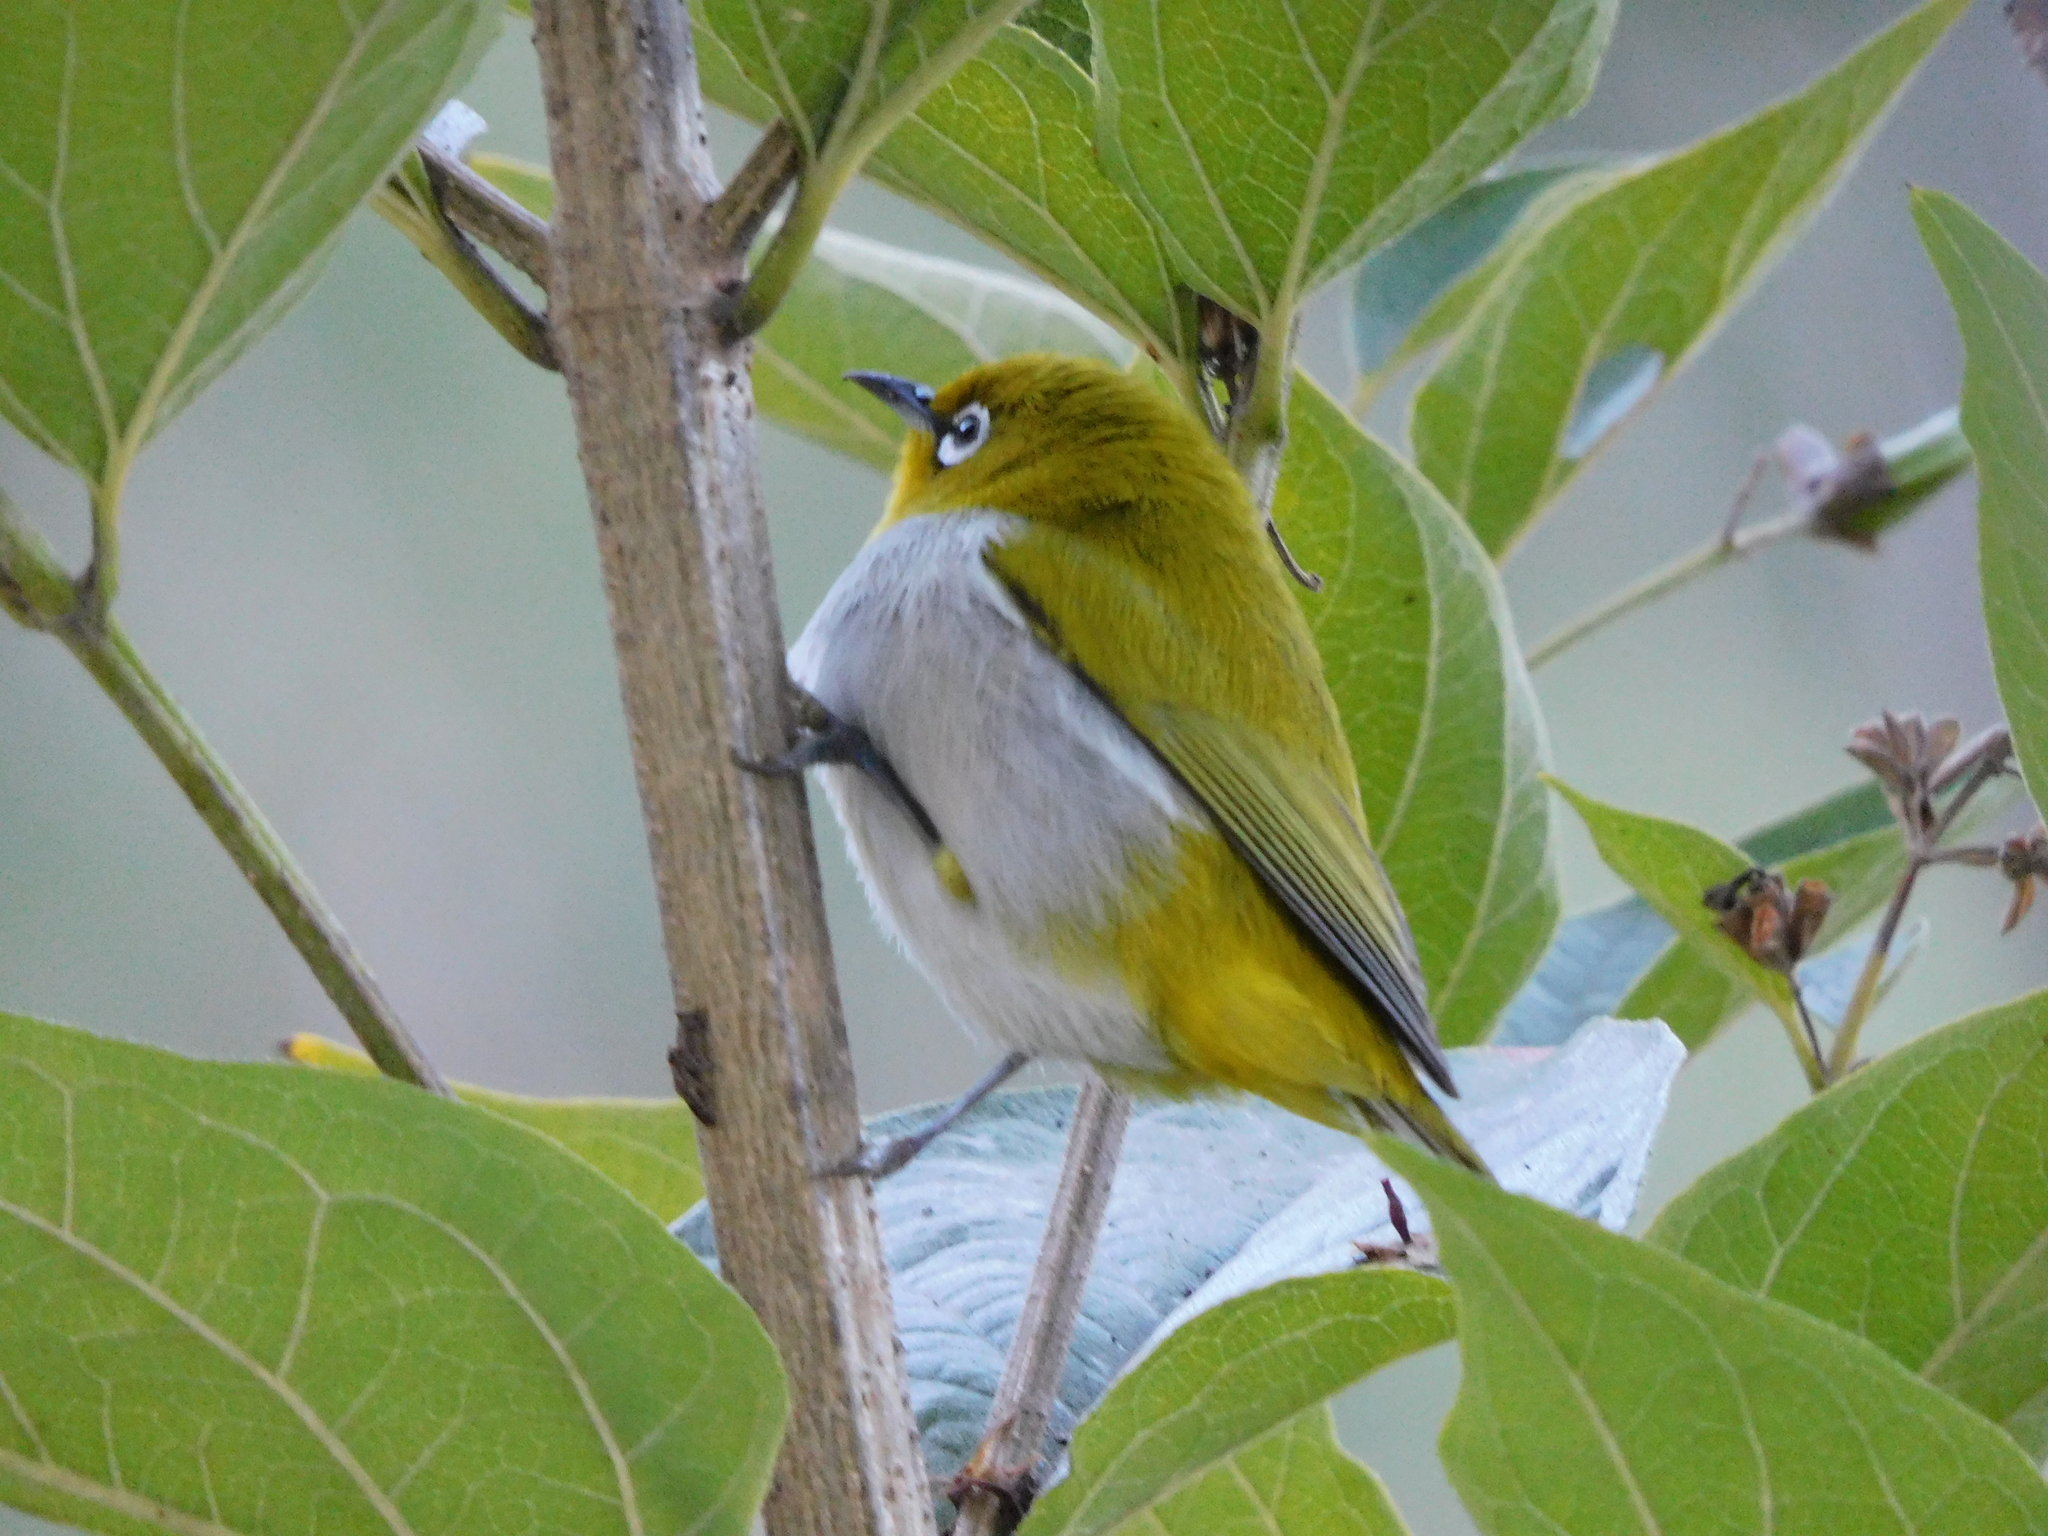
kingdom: Animalia
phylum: Chordata
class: Aves
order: Passeriformes
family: Zosteropidae
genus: Zosterops
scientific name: Zosterops palpebrosus
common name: Oriental white-eye
